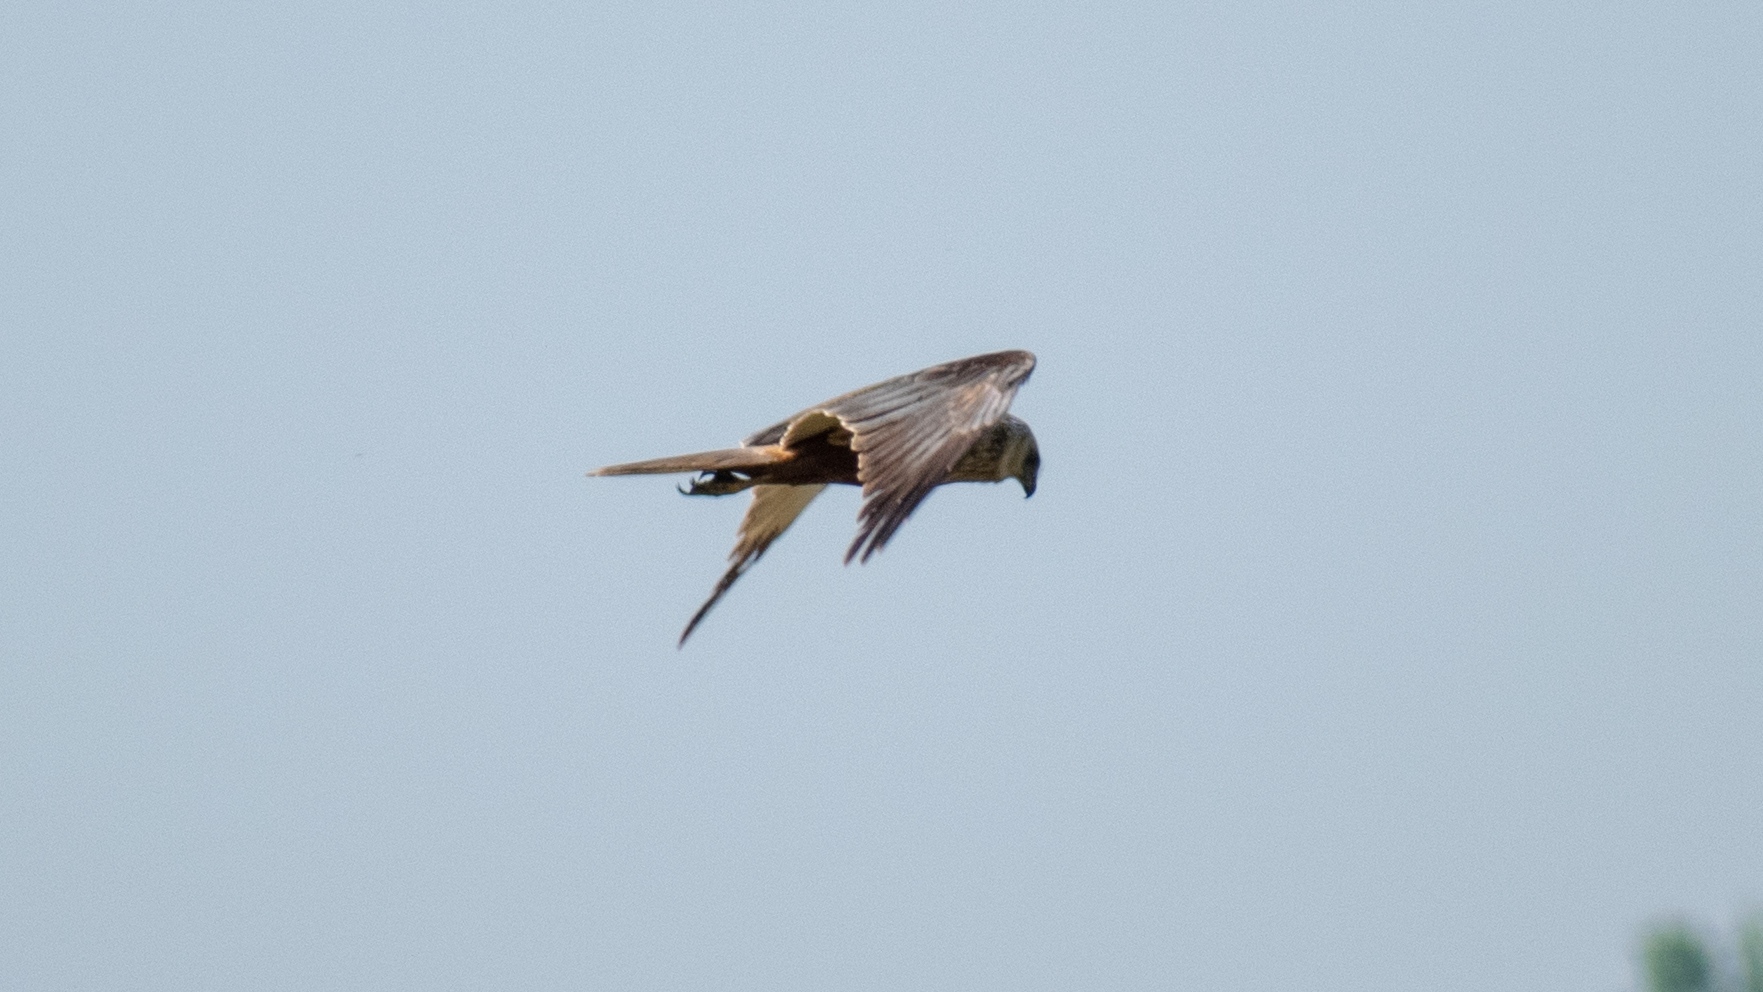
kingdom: Animalia
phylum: Chordata
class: Aves
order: Accipitriformes
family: Accipitridae
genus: Circus
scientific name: Circus aeruginosus
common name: Western marsh harrier
